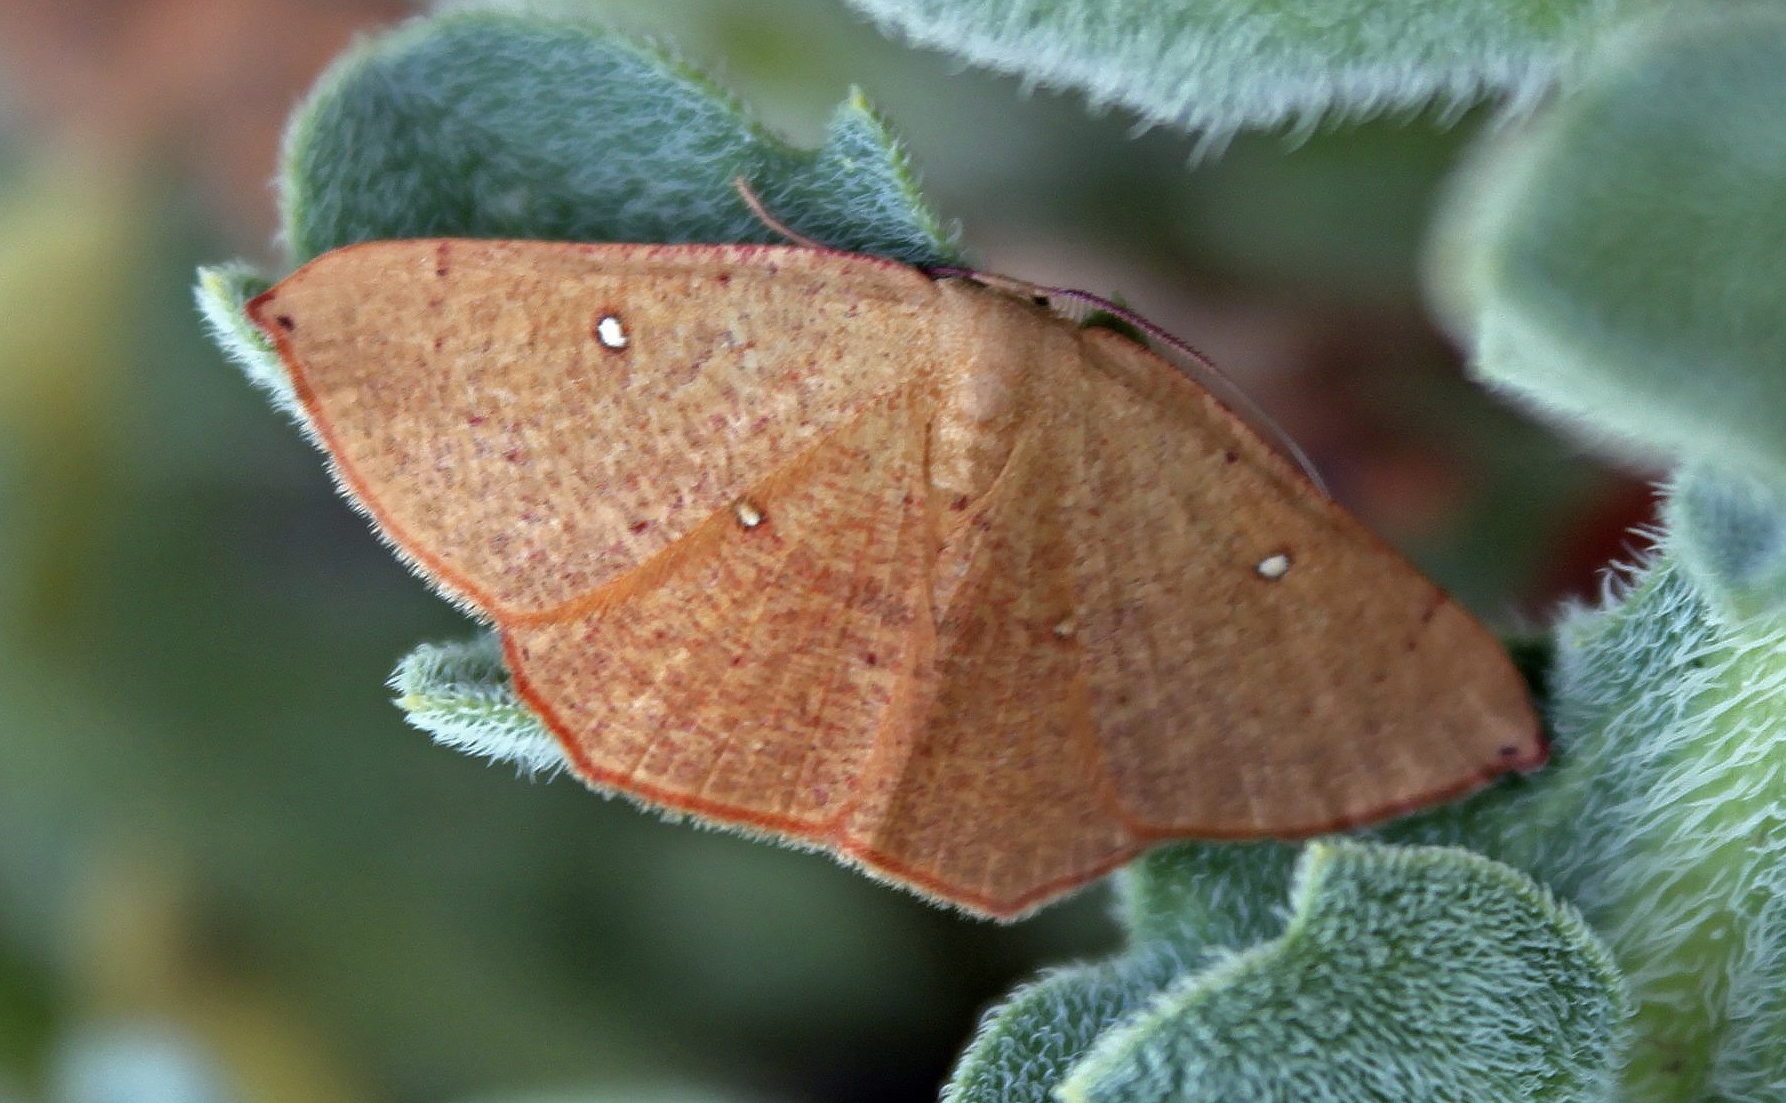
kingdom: Animalia
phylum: Arthropoda
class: Insecta
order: Lepidoptera
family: Geometridae
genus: Cyclophora
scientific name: Cyclophora puppillaria
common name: Blair's mocha
